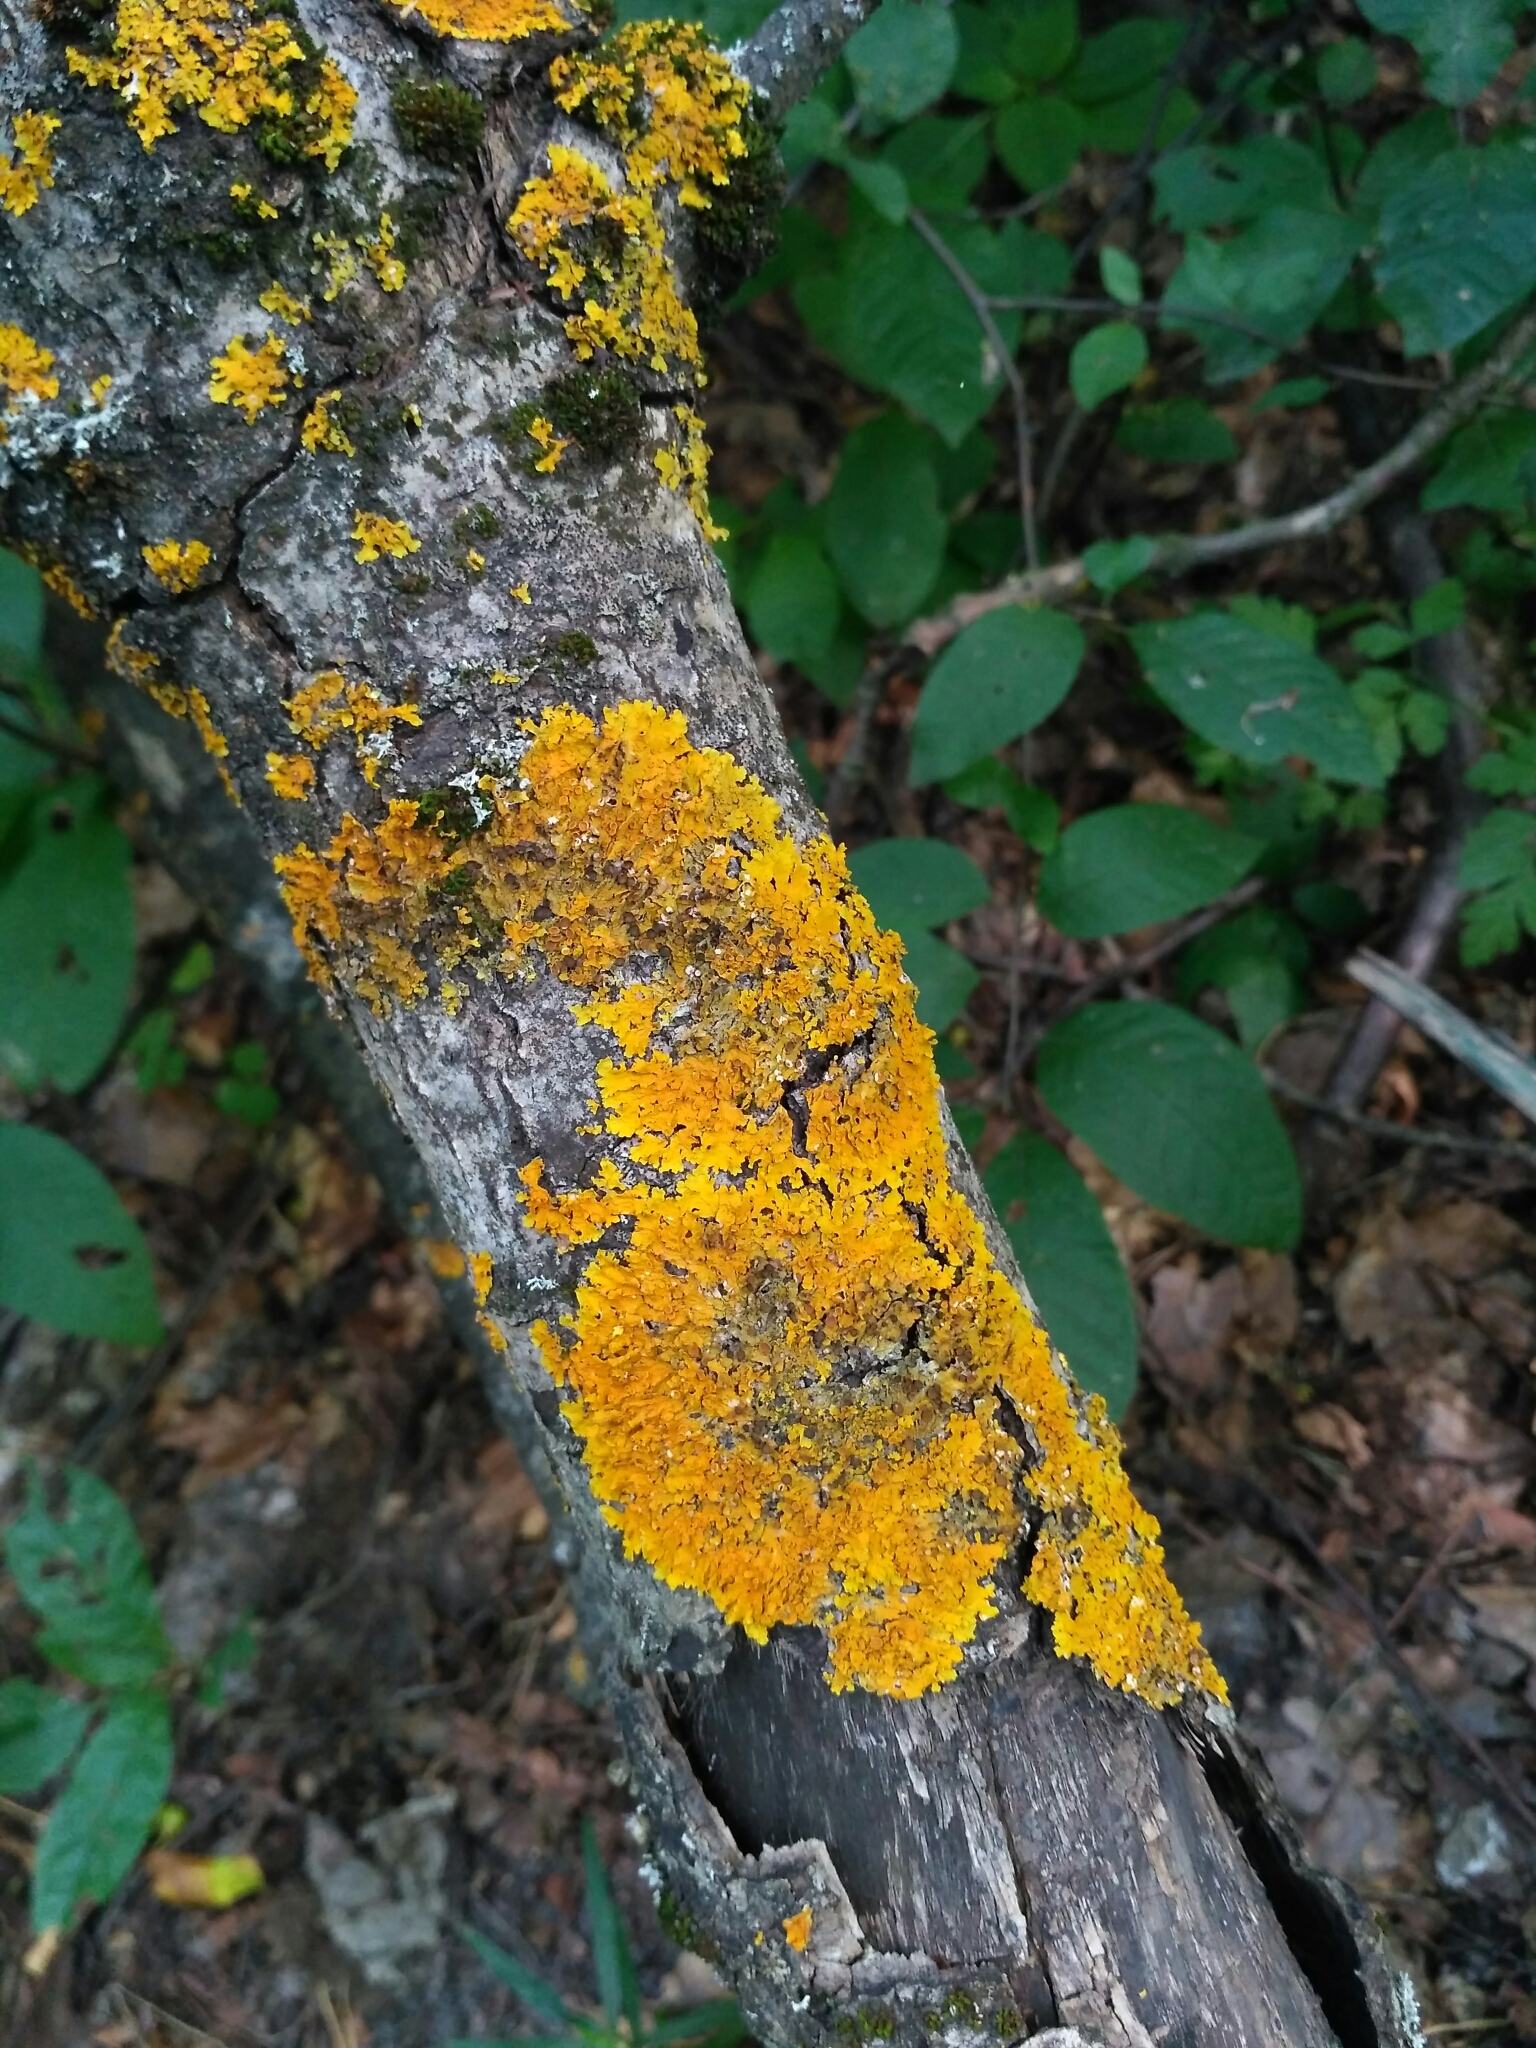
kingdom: Fungi
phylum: Ascomycota
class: Lecanoromycetes
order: Teloschistales
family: Teloschistaceae
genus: Xanthoria
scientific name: Xanthoria parietina
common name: Common orange lichen
